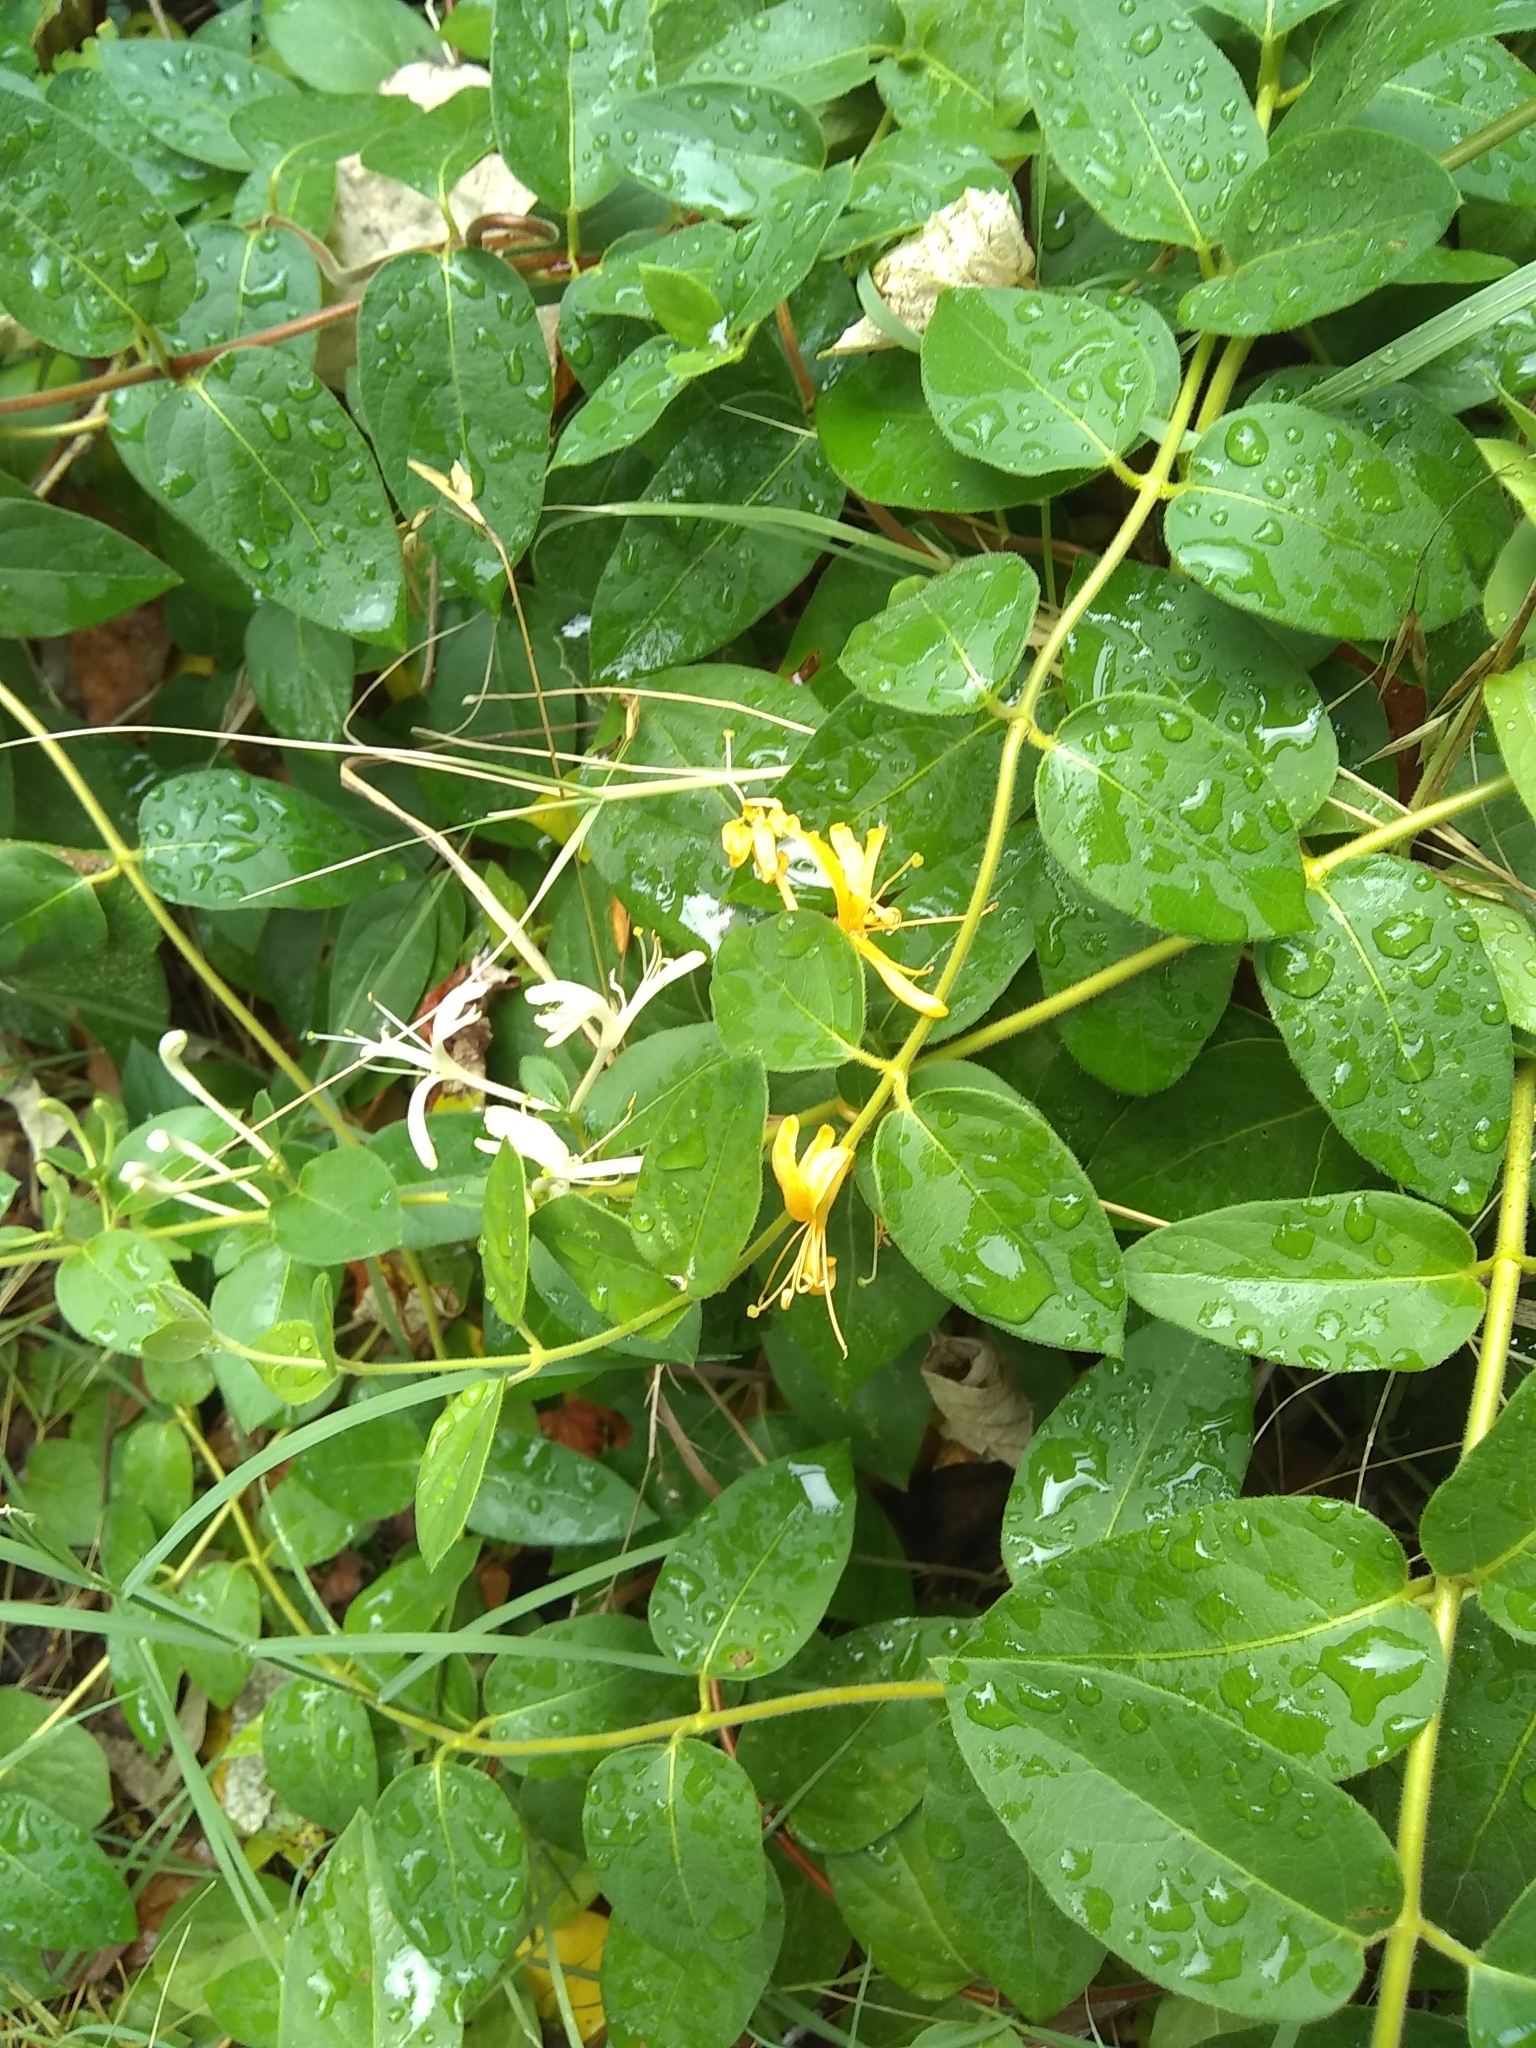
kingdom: Plantae
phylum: Tracheophyta
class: Magnoliopsida
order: Dipsacales
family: Caprifoliaceae
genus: Lonicera
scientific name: Lonicera japonica
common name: Japanese honeysuckle
